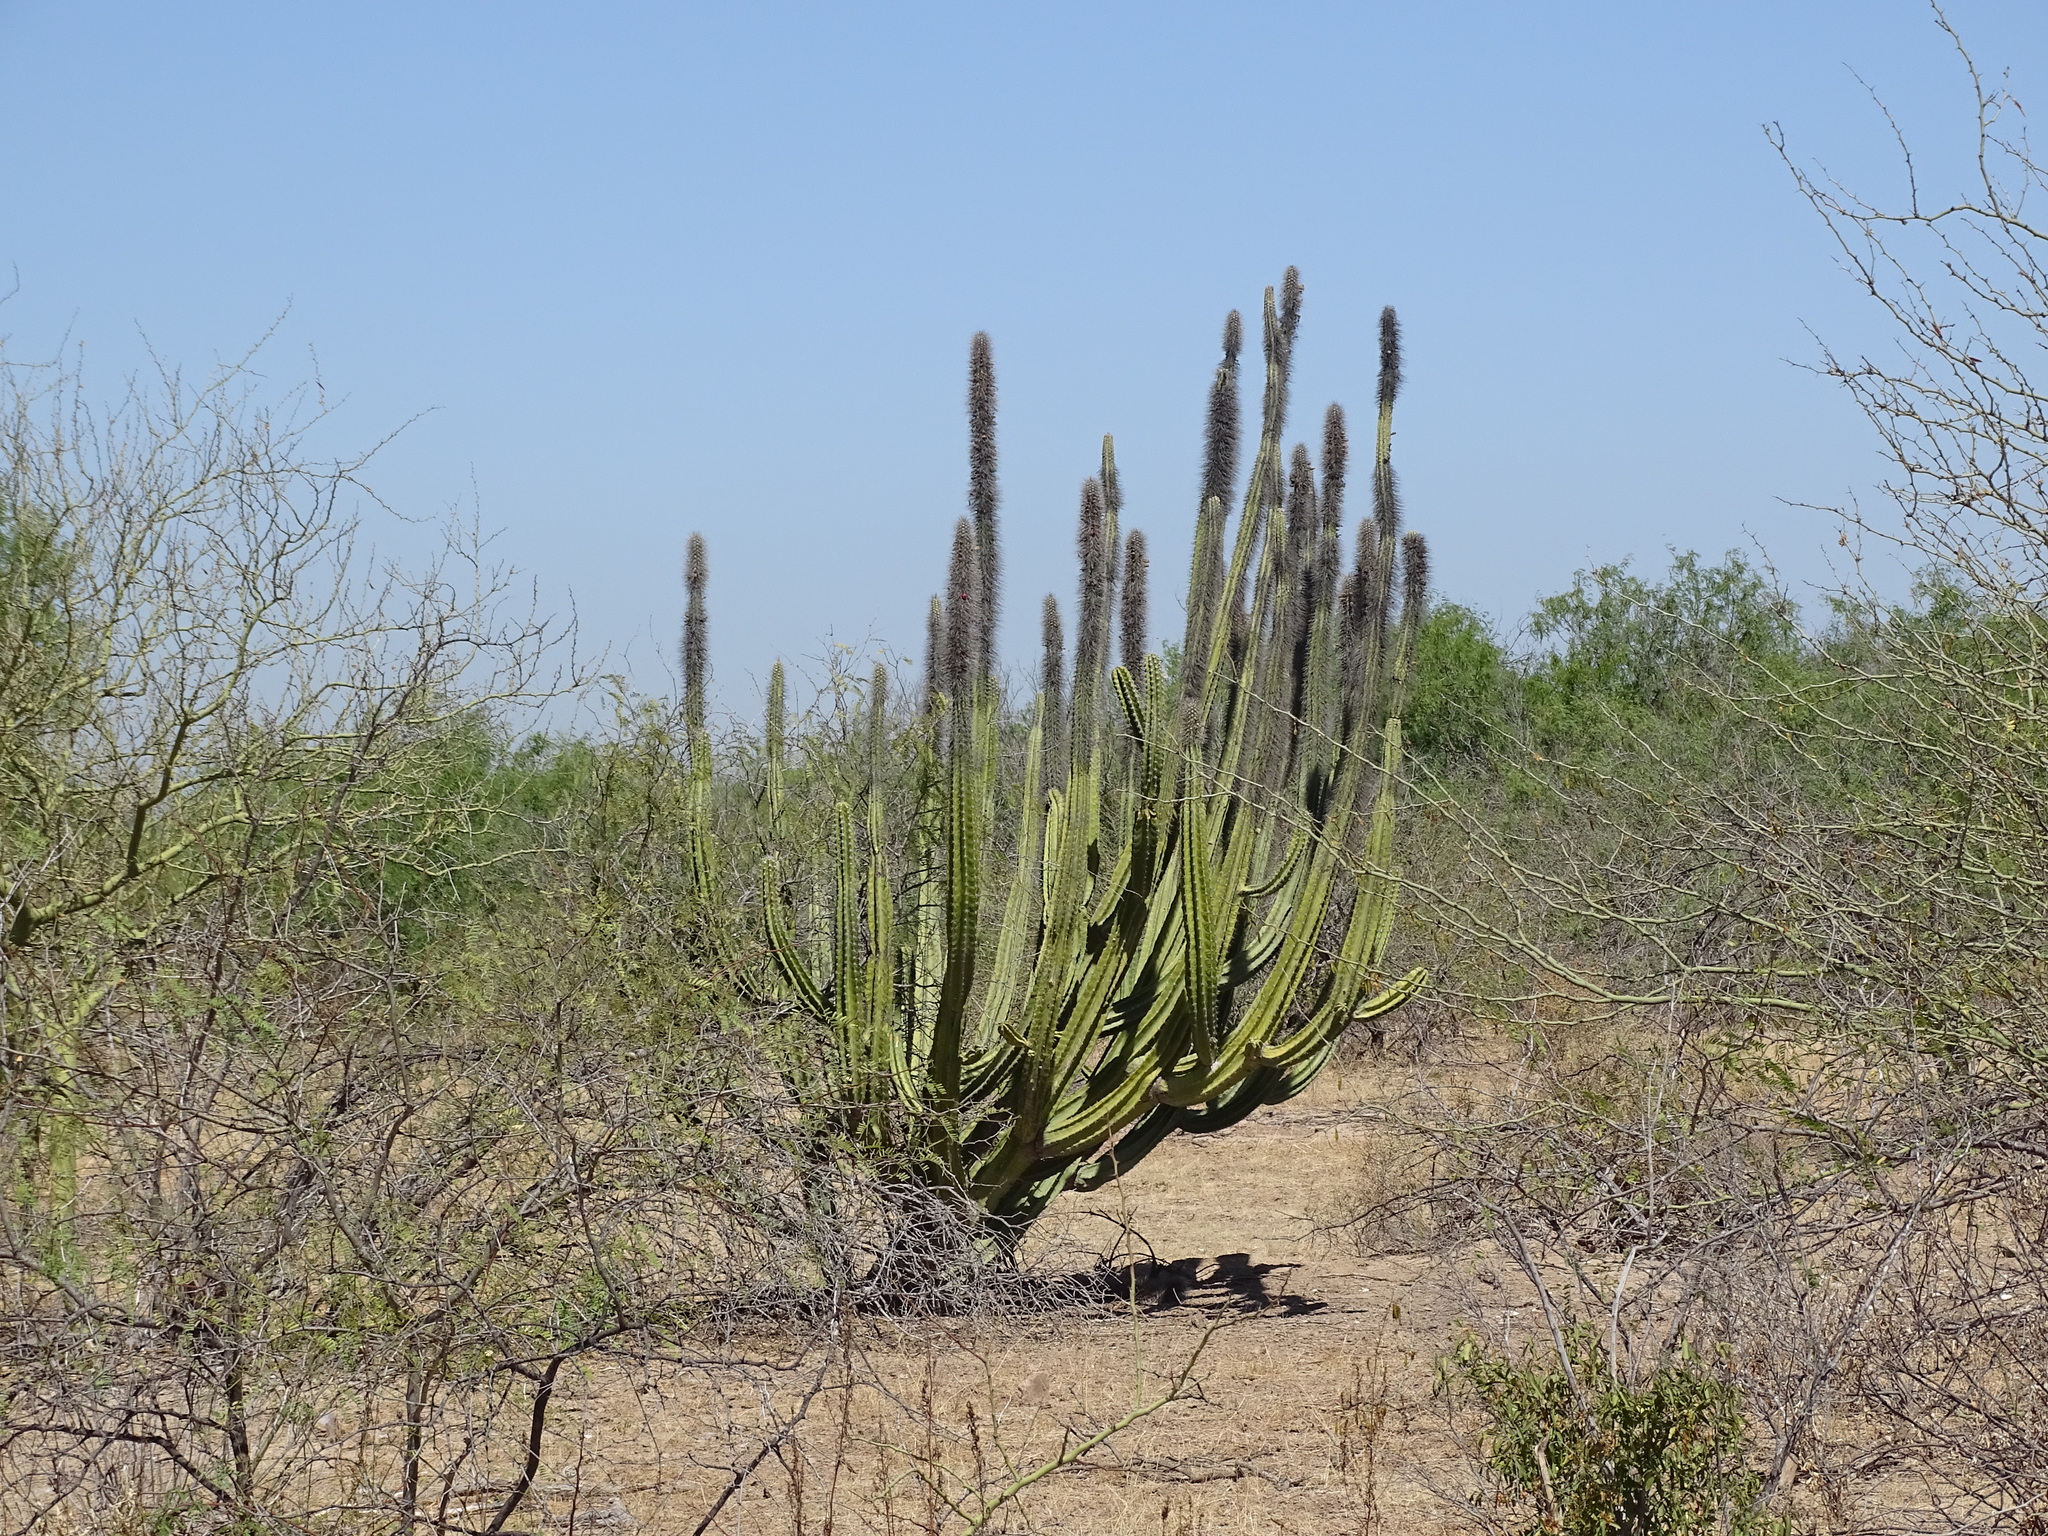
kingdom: Plantae
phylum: Tracheophyta
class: Magnoliopsida
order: Caryophyllales
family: Cactaceae
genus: Pachycereus
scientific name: Pachycereus schottii
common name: Senita cactus
